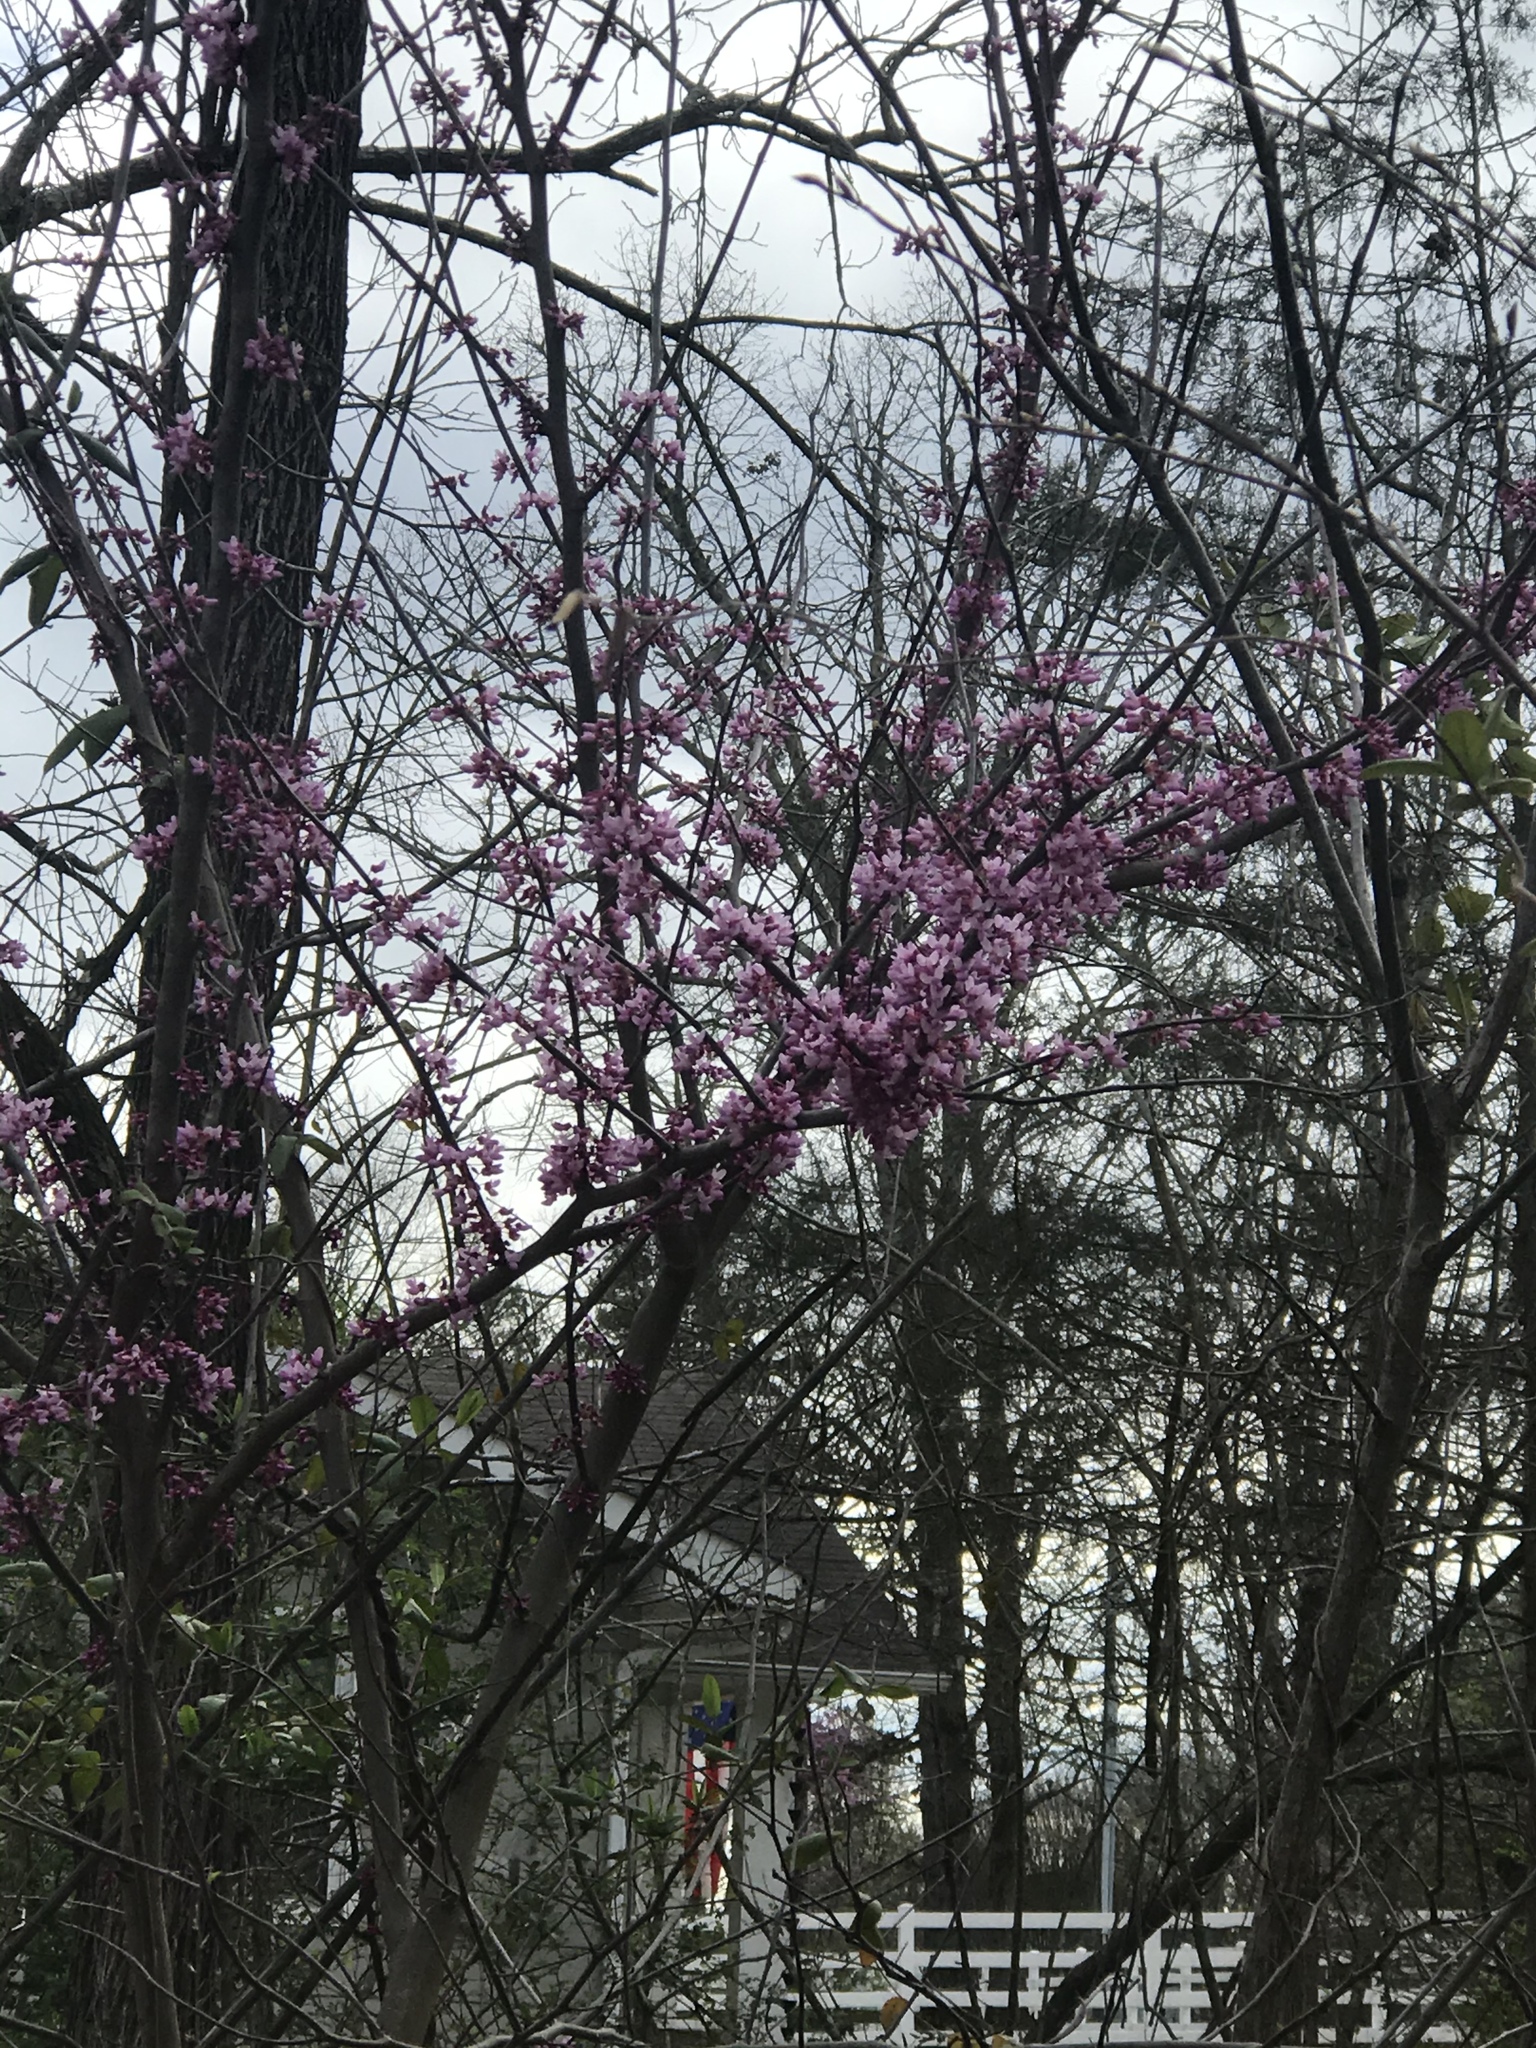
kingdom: Plantae
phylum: Tracheophyta
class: Magnoliopsida
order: Fabales
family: Fabaceae
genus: Cercis
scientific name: Cercis canadensis
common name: Eastern redbud
